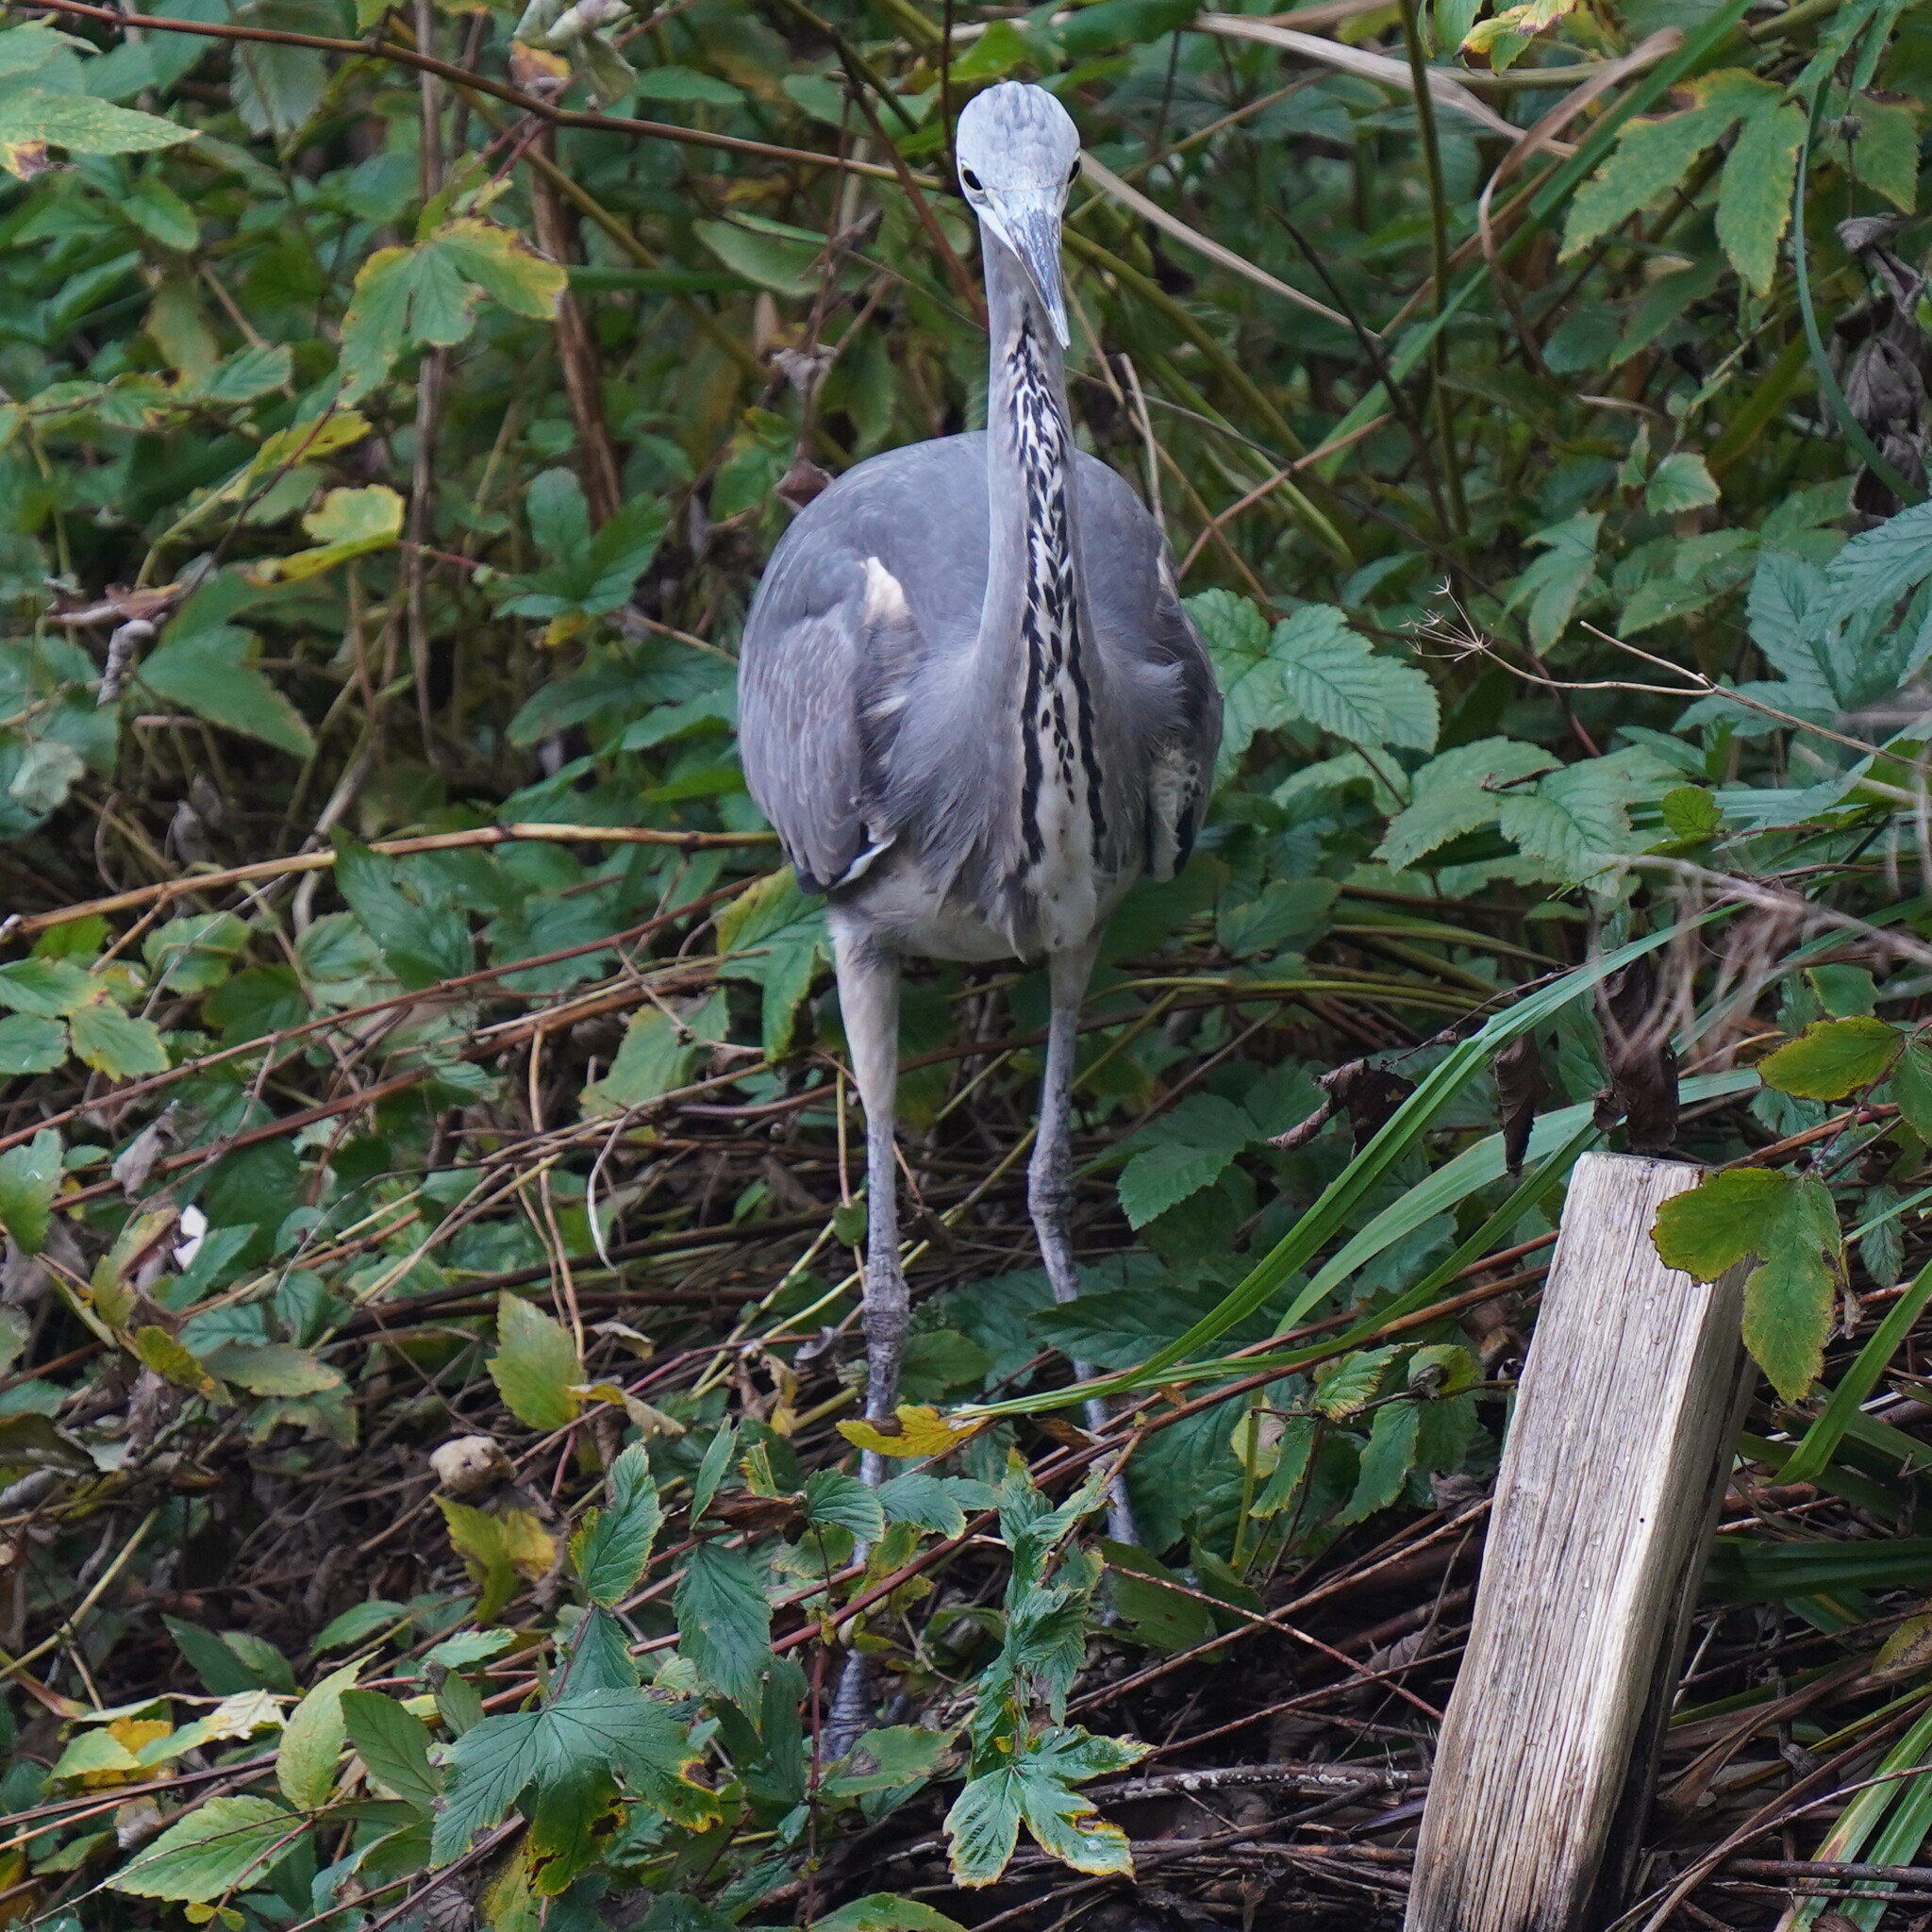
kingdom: Animalia
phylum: Chordata
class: Aves
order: Pelecaniformes
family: Ardeidae
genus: Ardea
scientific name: Ardea cinerea
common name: Grey heron
